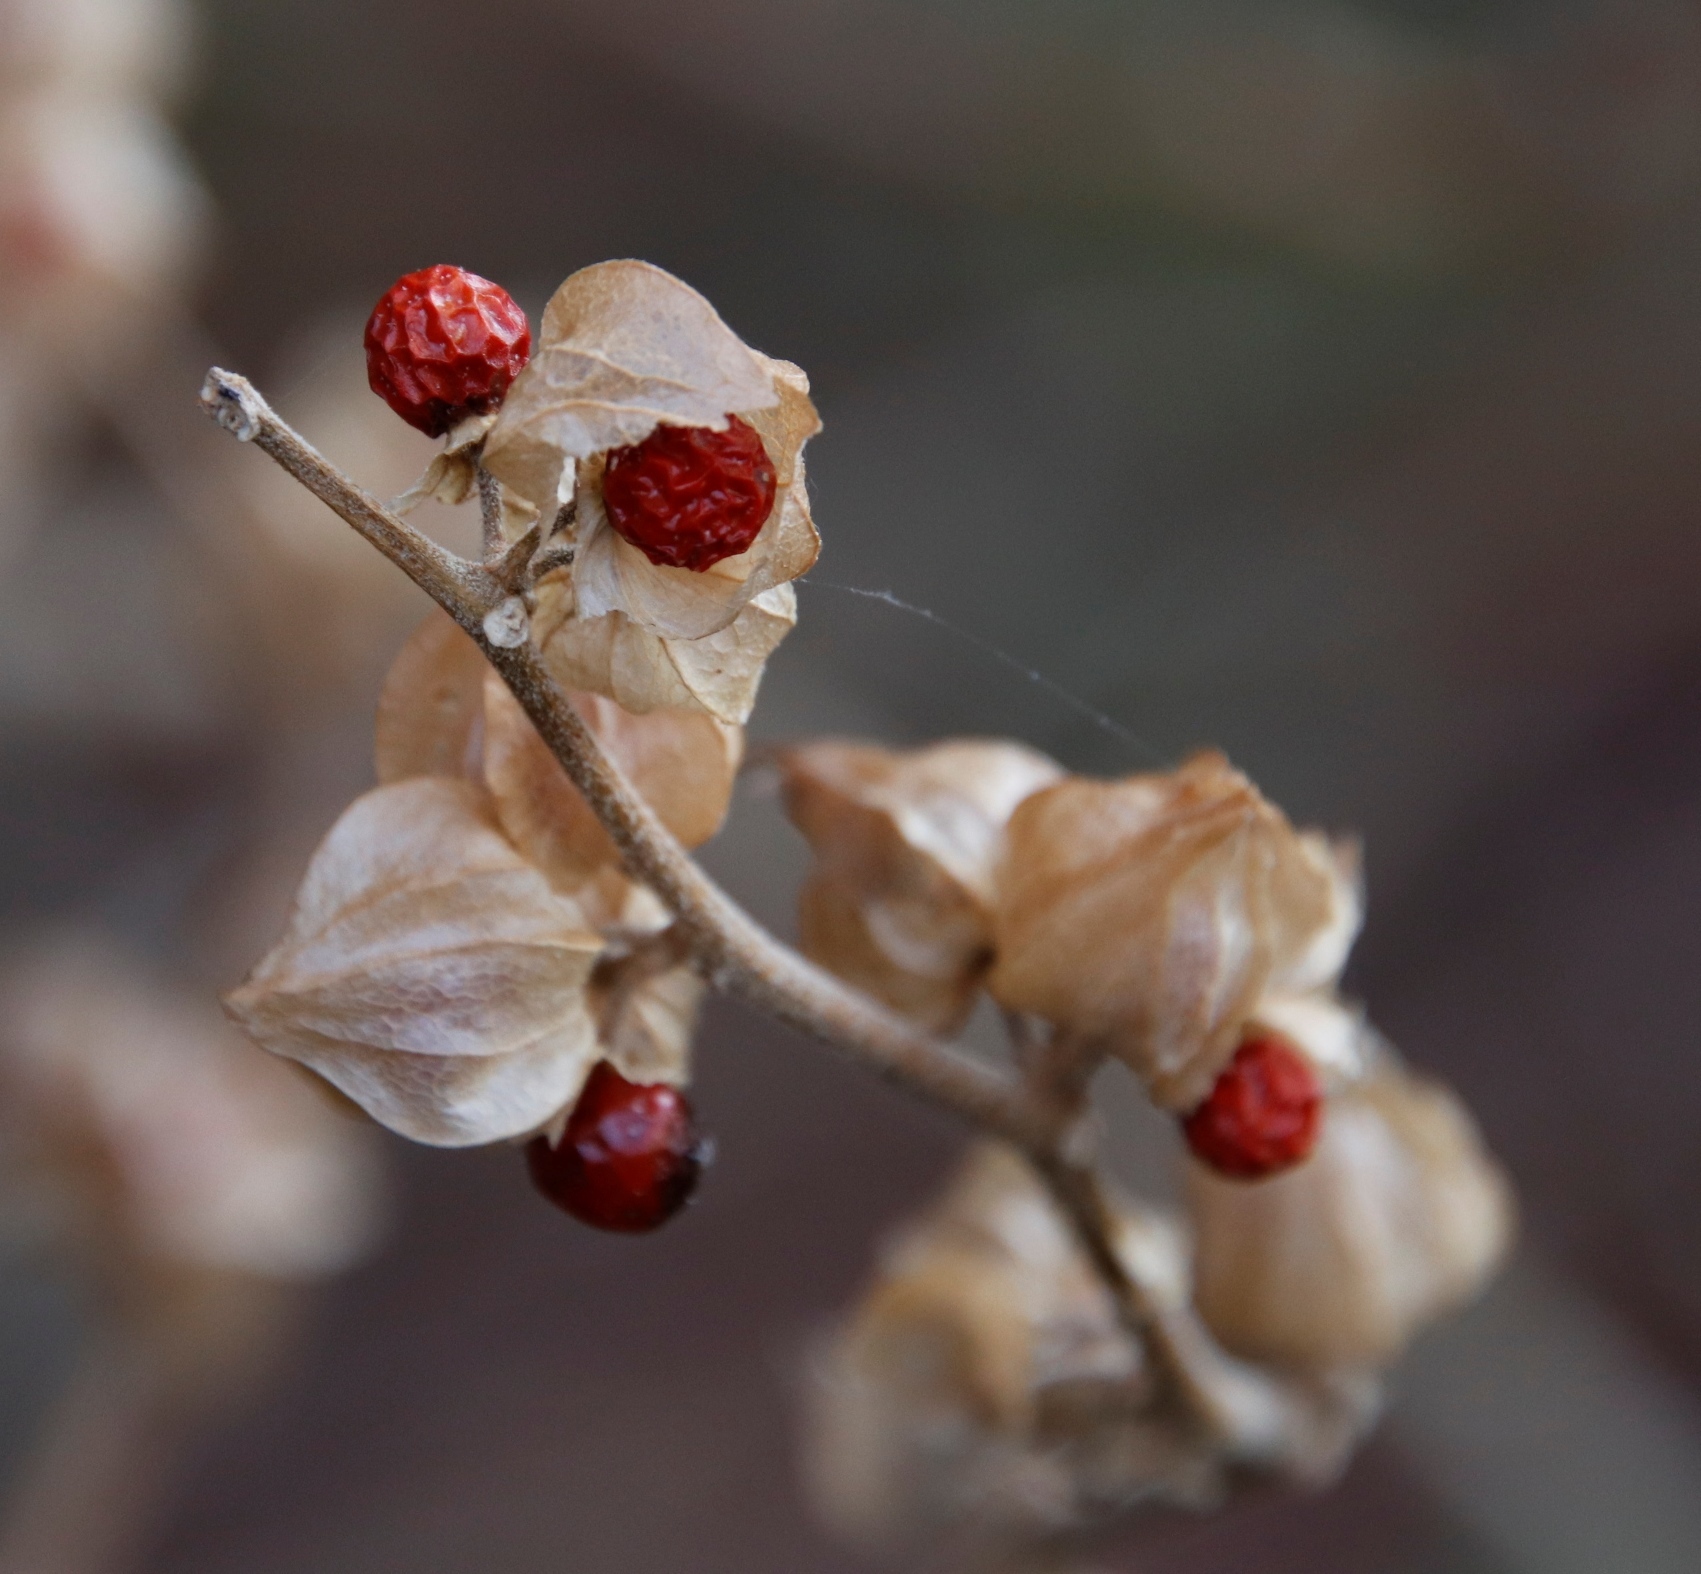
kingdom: Plantae
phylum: Tracheophyta
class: Magnoliopsida
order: Solanales
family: Solanaceae
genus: Withania
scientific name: Withania somnifera
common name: Winter-cherry
